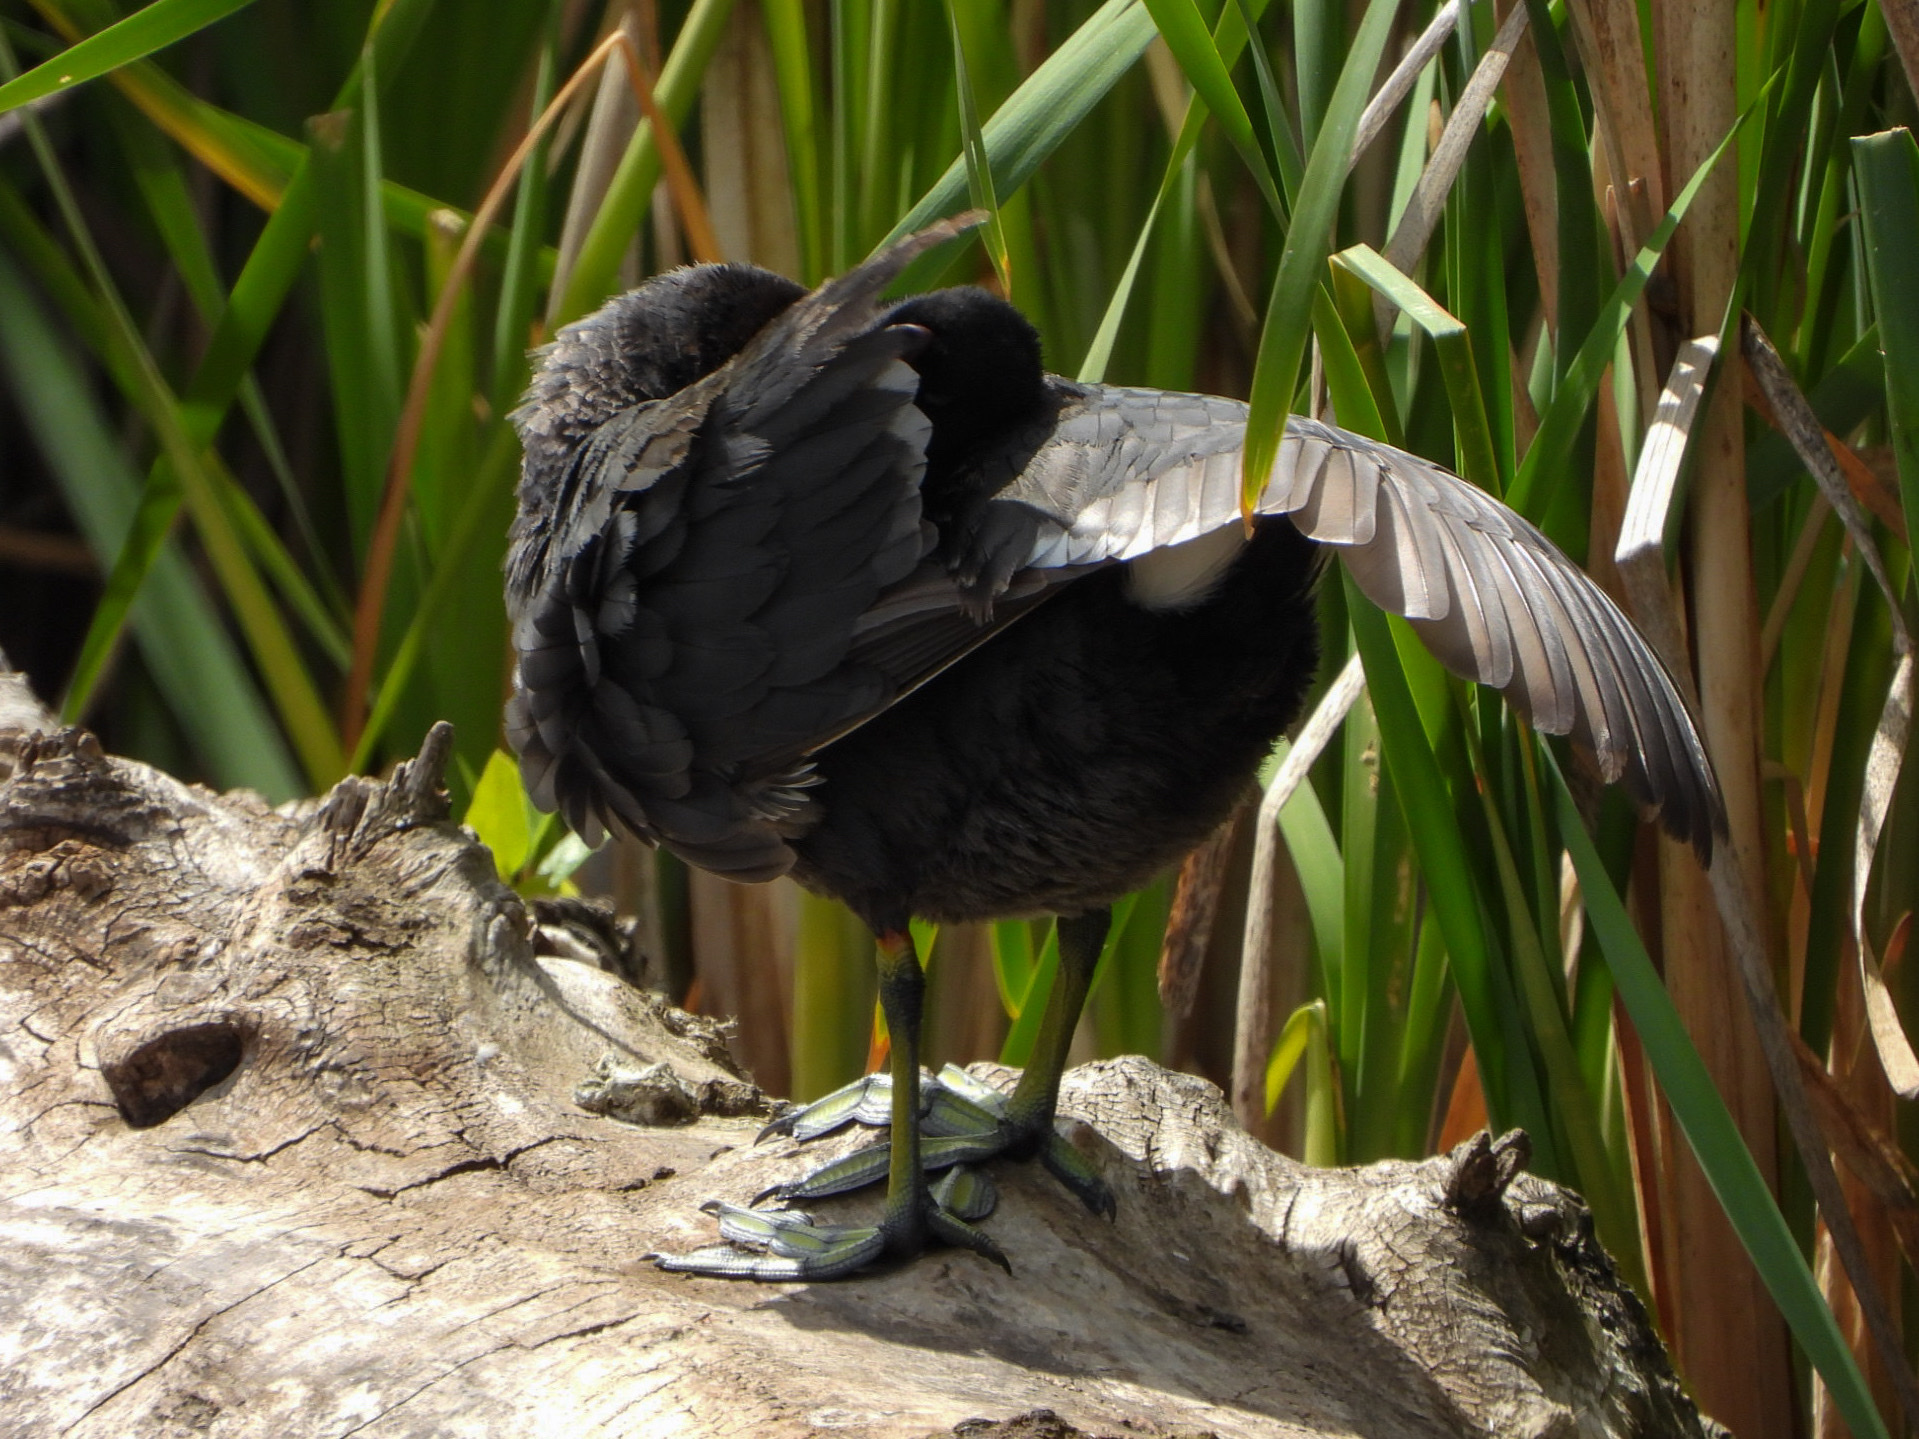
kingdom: Animalia
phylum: Chordata
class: Aves
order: Gruiformes
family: Rallidae
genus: Fulica
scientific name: Fulica americana
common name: American coot
